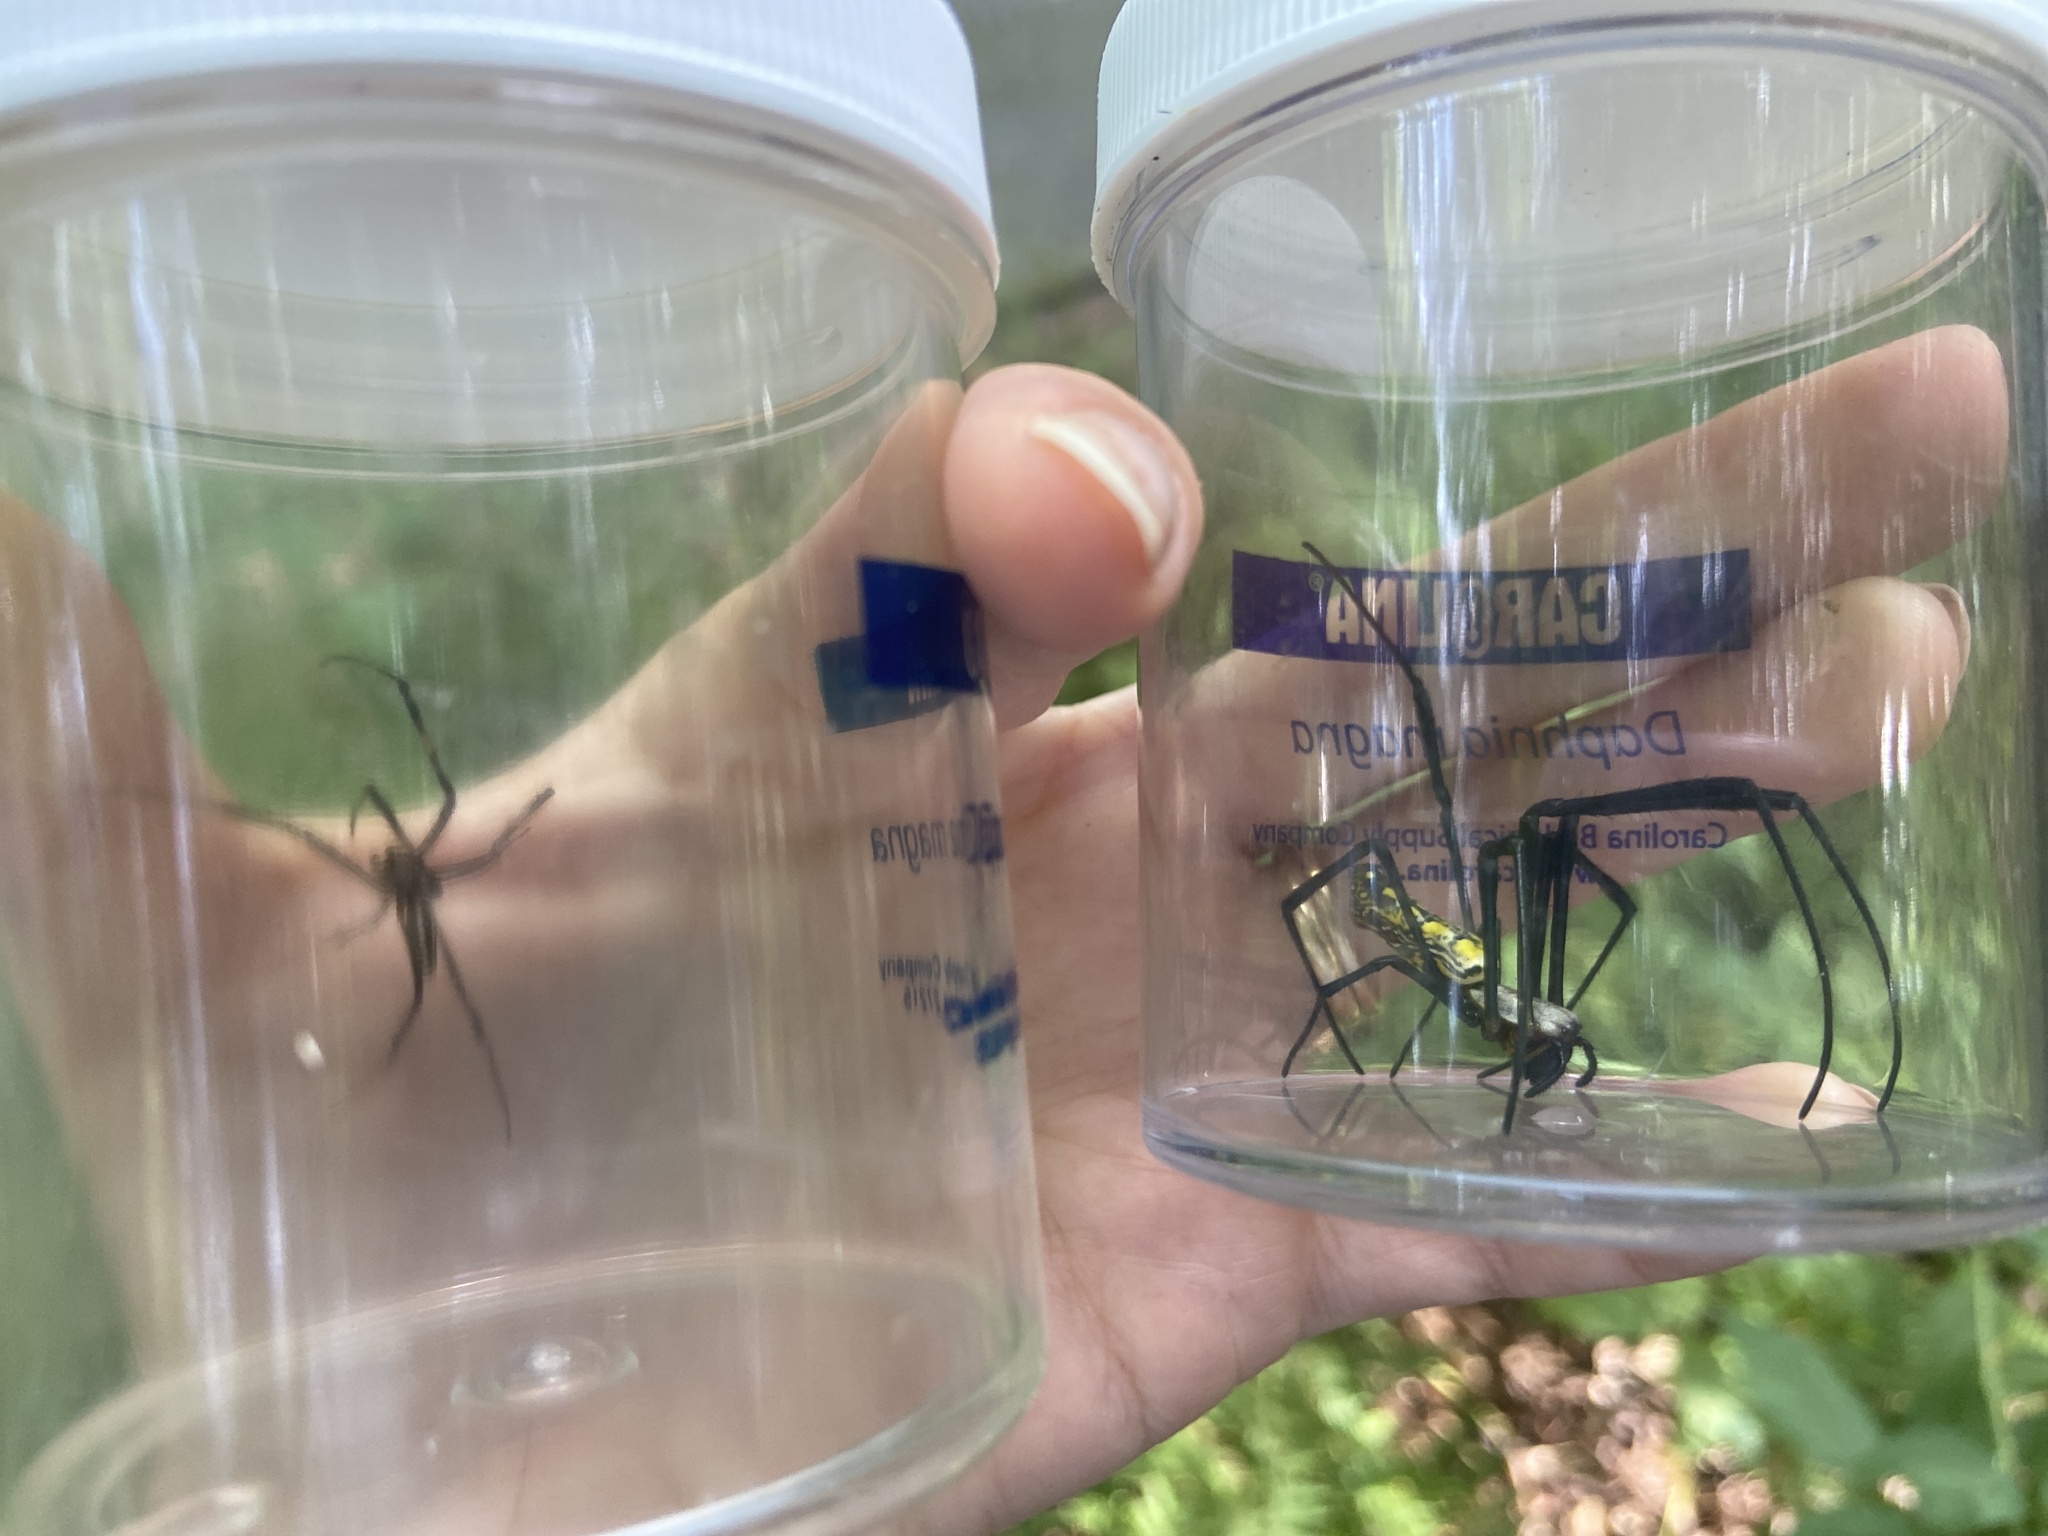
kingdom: Animalia
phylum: Arthropoda
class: Arachnida
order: Araneae
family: Araneidae
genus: Trichonephila
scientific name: Trichonephila clavata
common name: Jorō spider
